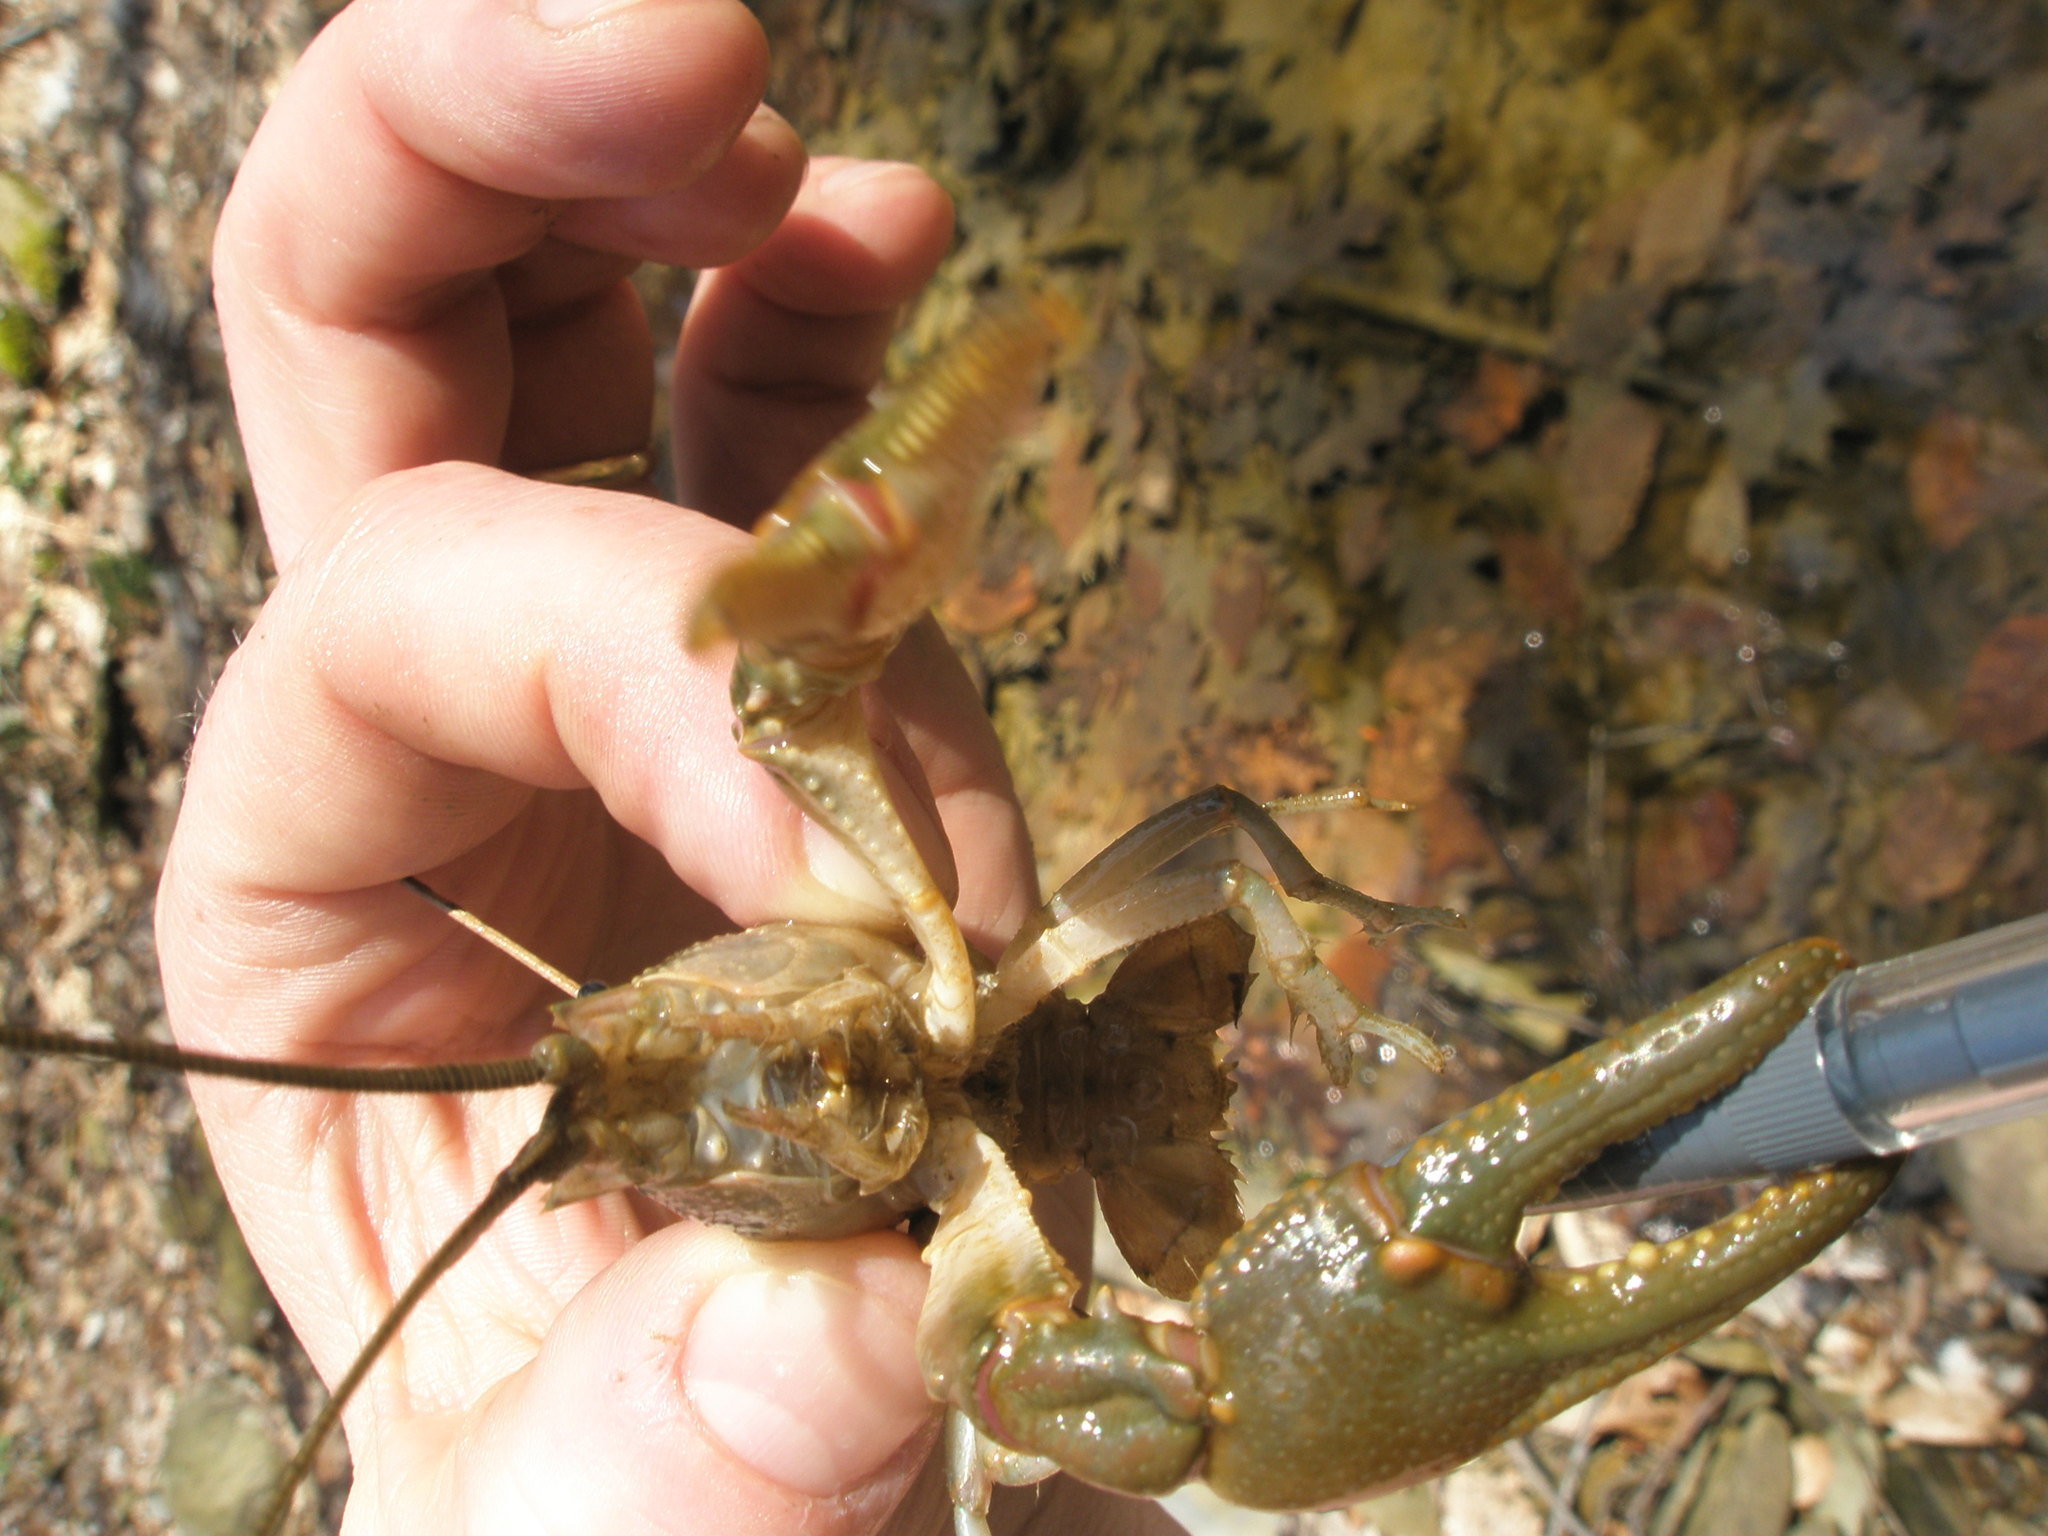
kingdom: Animalia
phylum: Arthropoda
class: Malacostraca
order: Decapoda
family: Cambaridae
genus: Cambarus
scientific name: Cambarus robustus
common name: Big water crayfish
